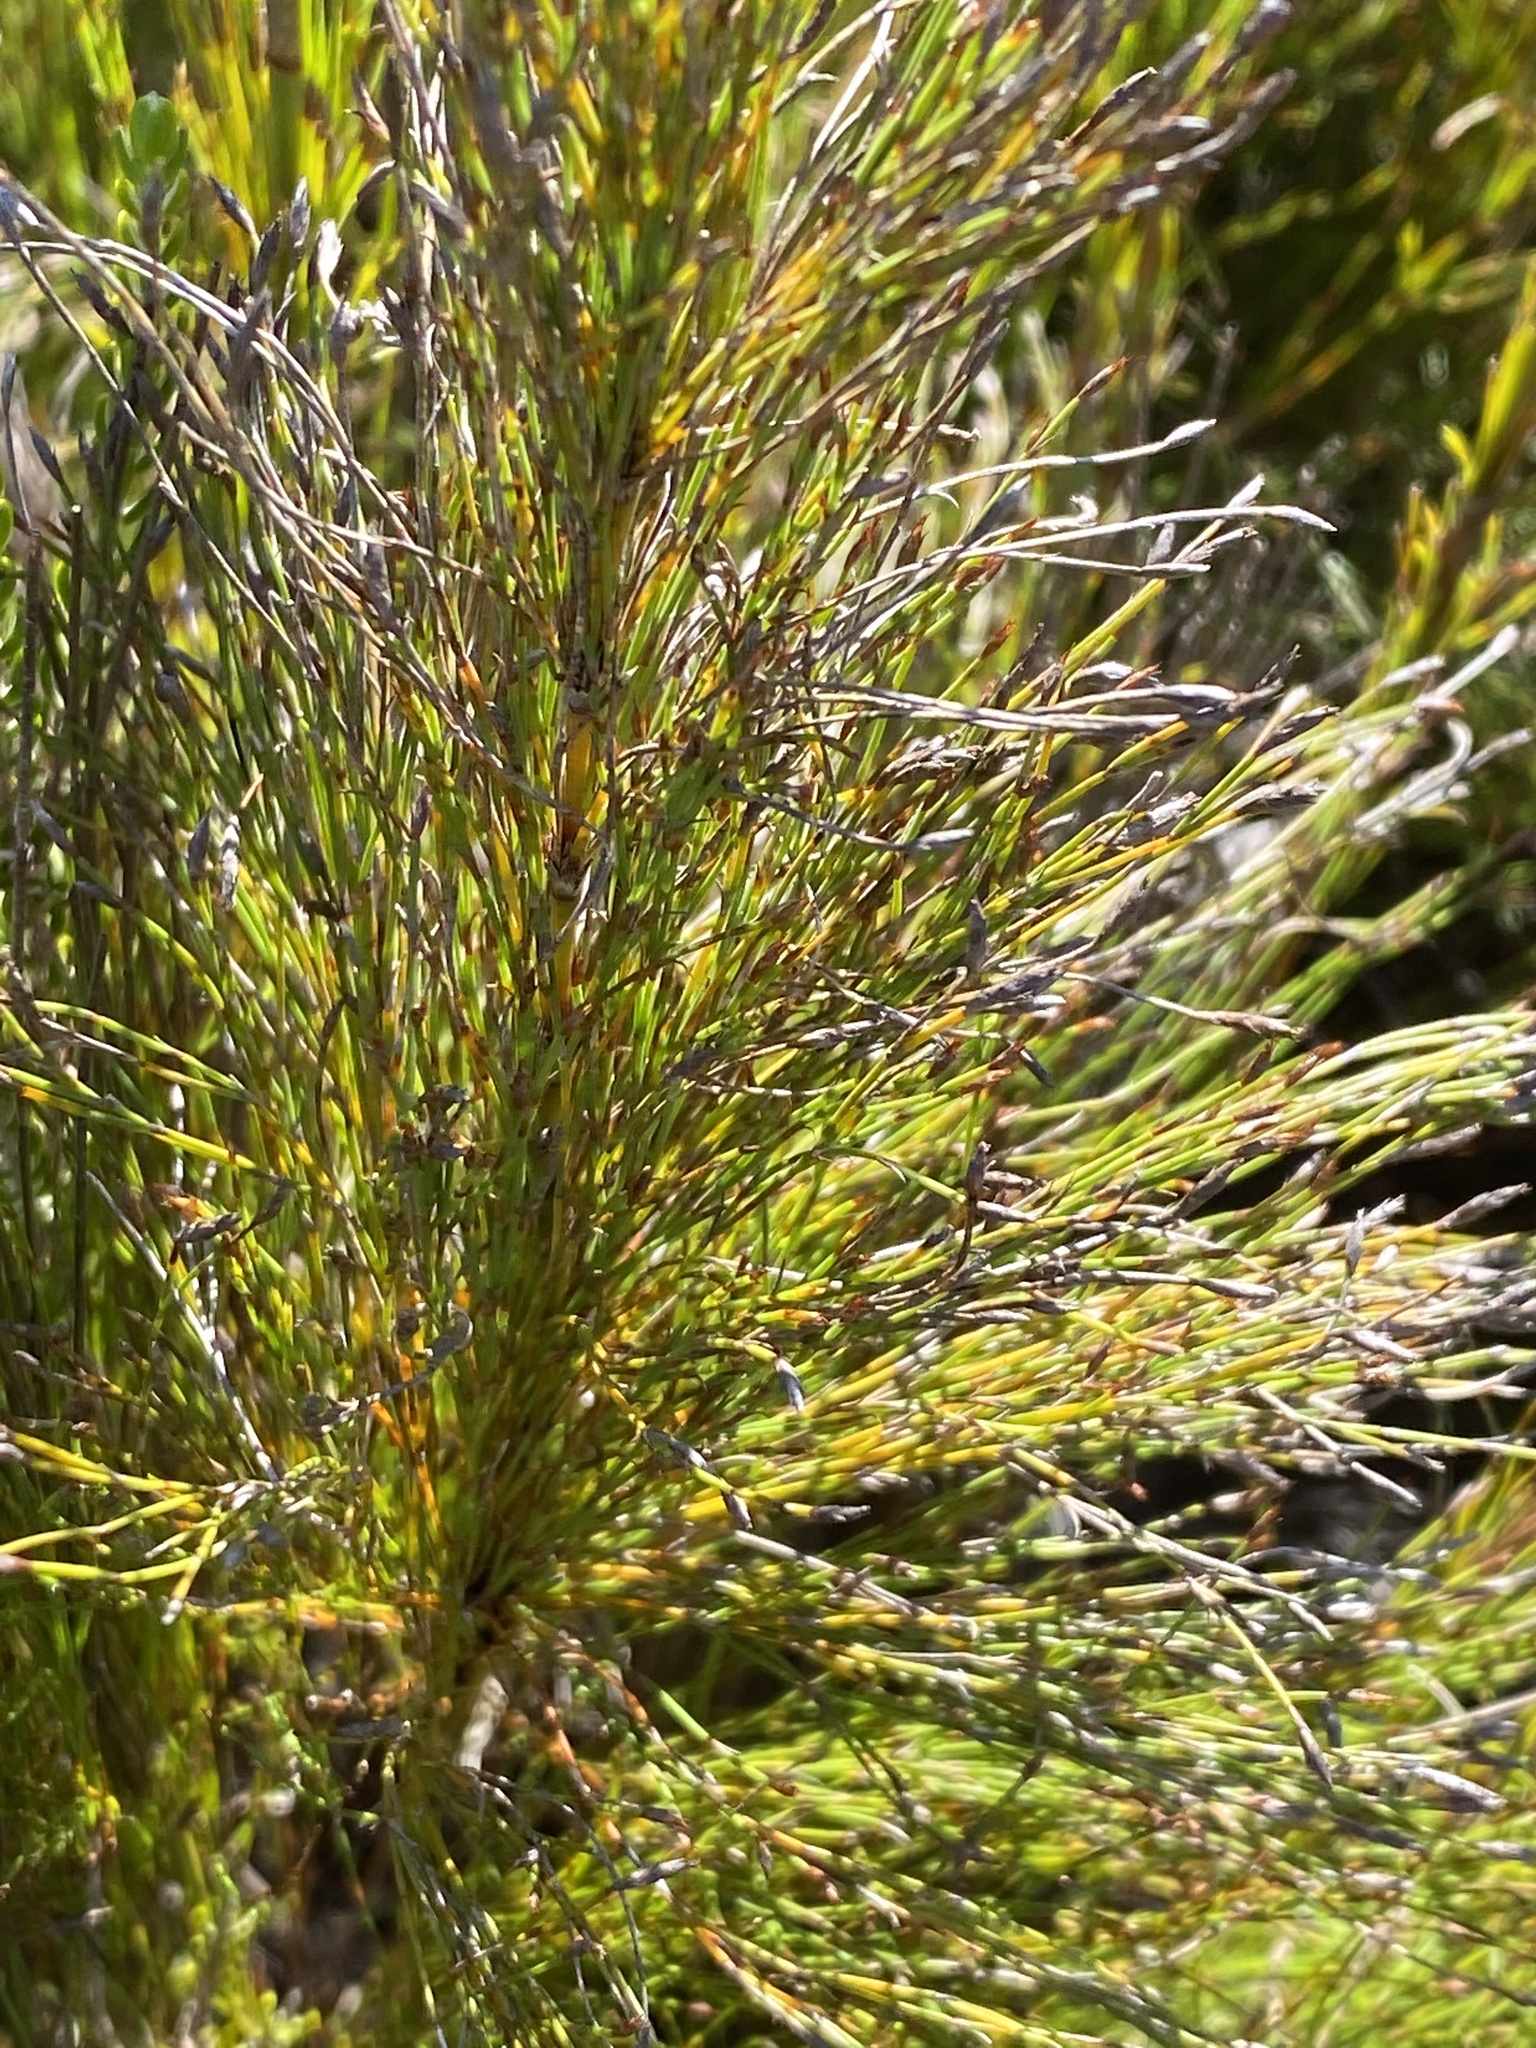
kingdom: Plantae
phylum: Tracheophyta
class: Liliopsida
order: Poales
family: Restionaceae
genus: Restio
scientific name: Restio leptoclados
